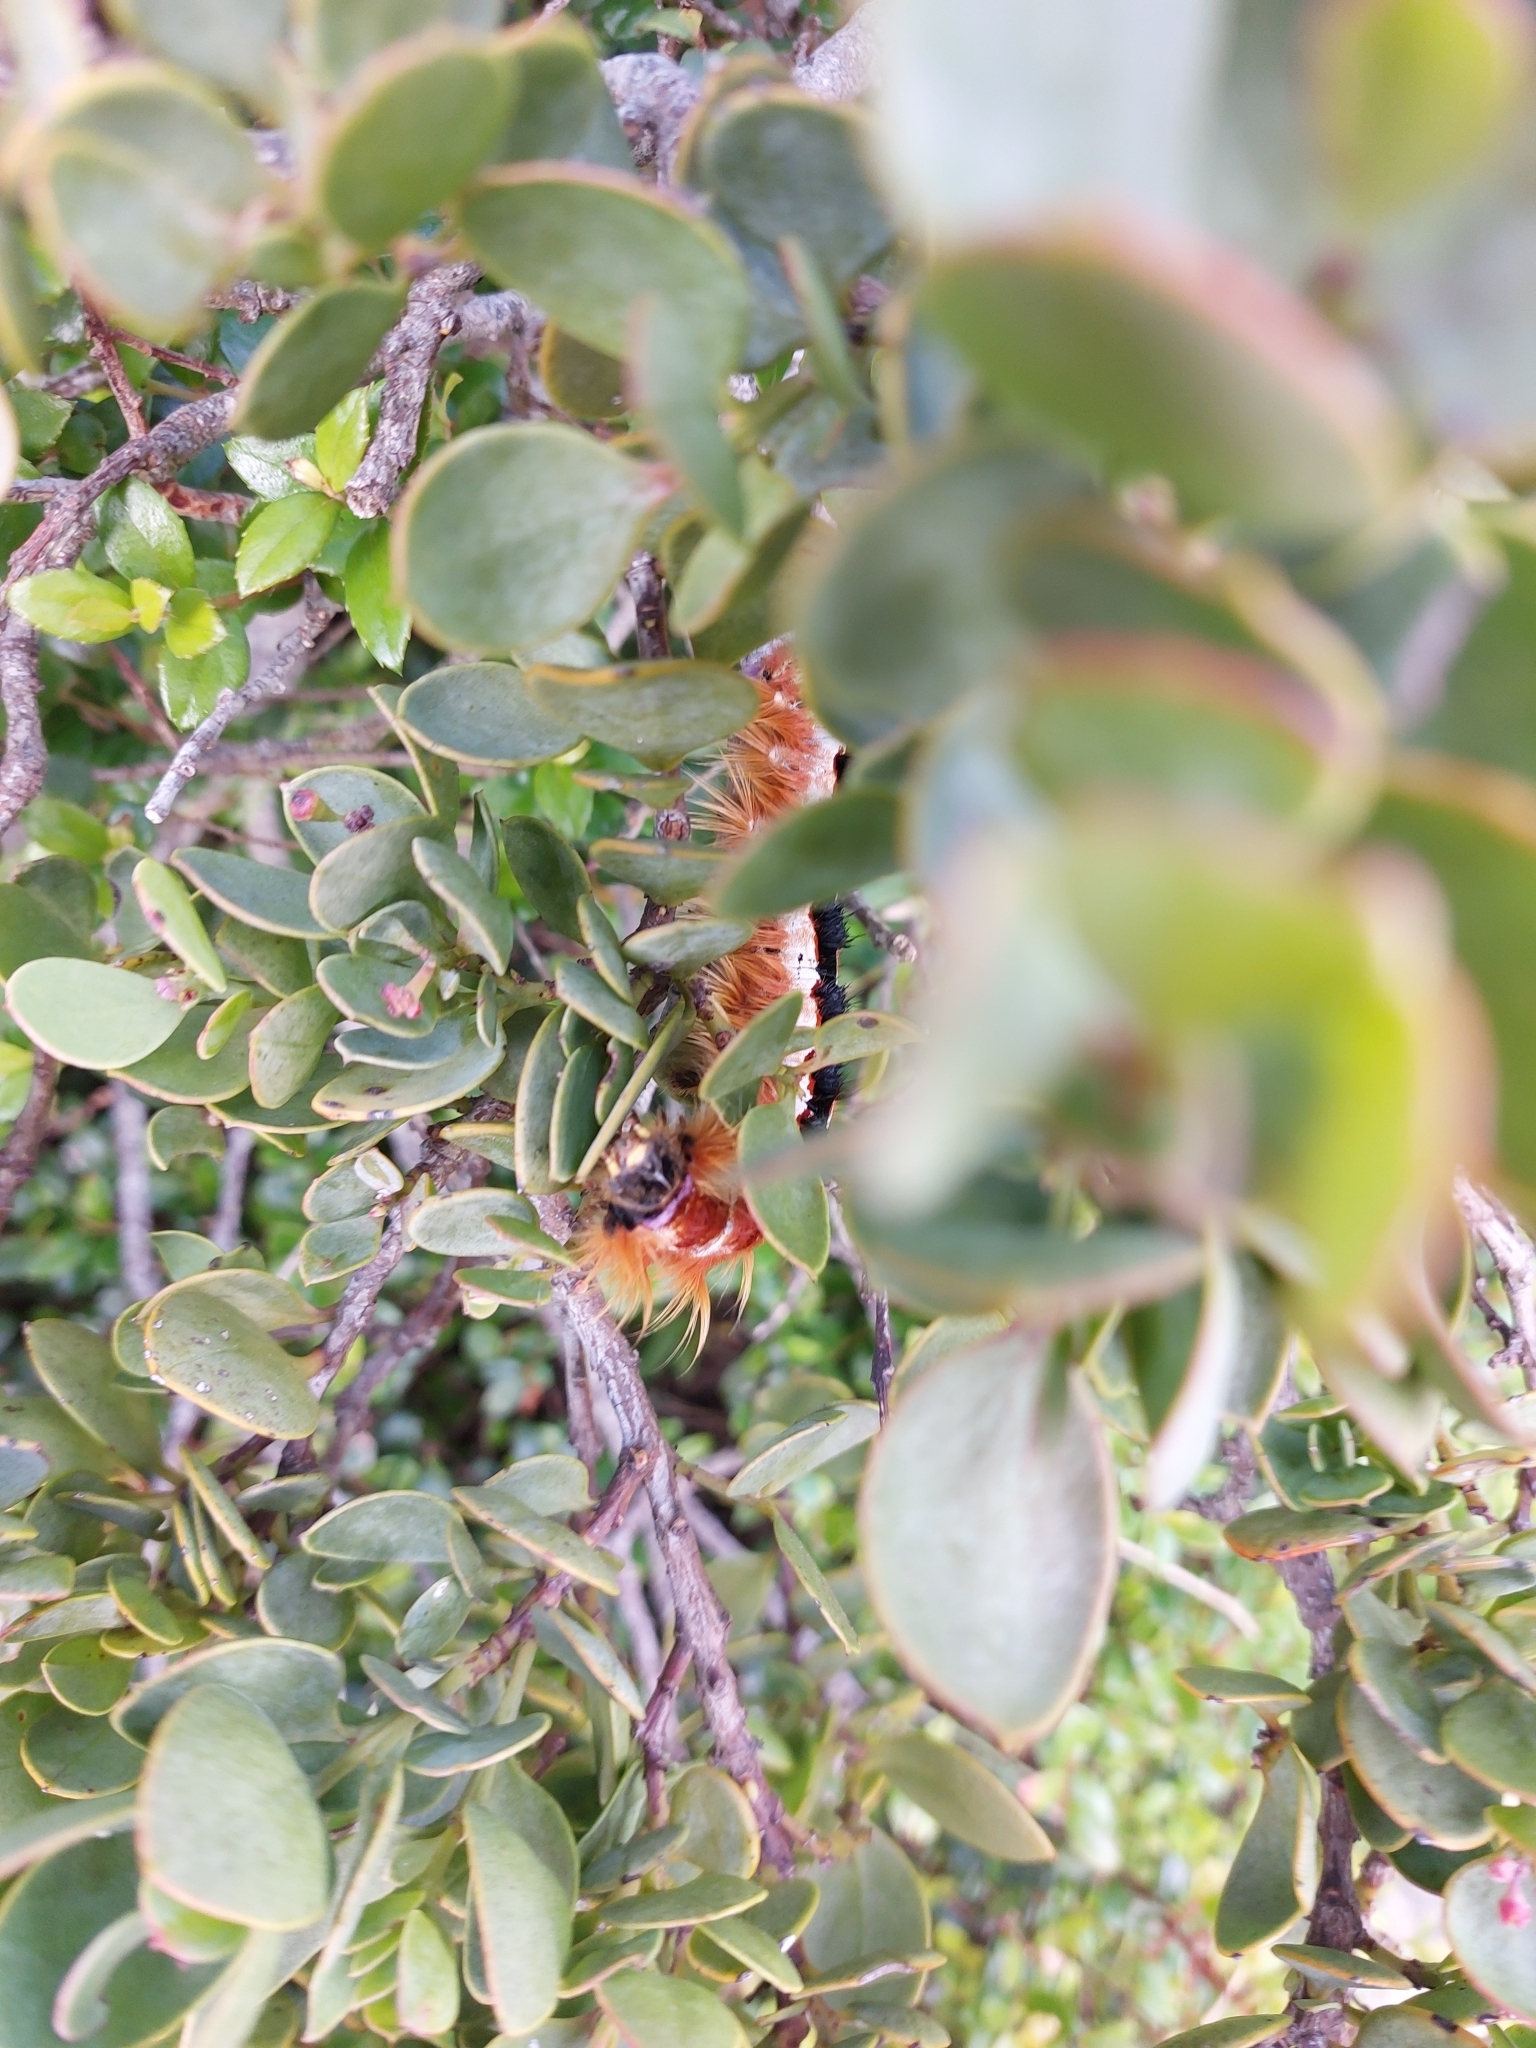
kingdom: Animalia
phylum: Arthropoda
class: Insecta
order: Lepidoptera
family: Lasiocampidae
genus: Eutricha
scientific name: Eutricha capensis
